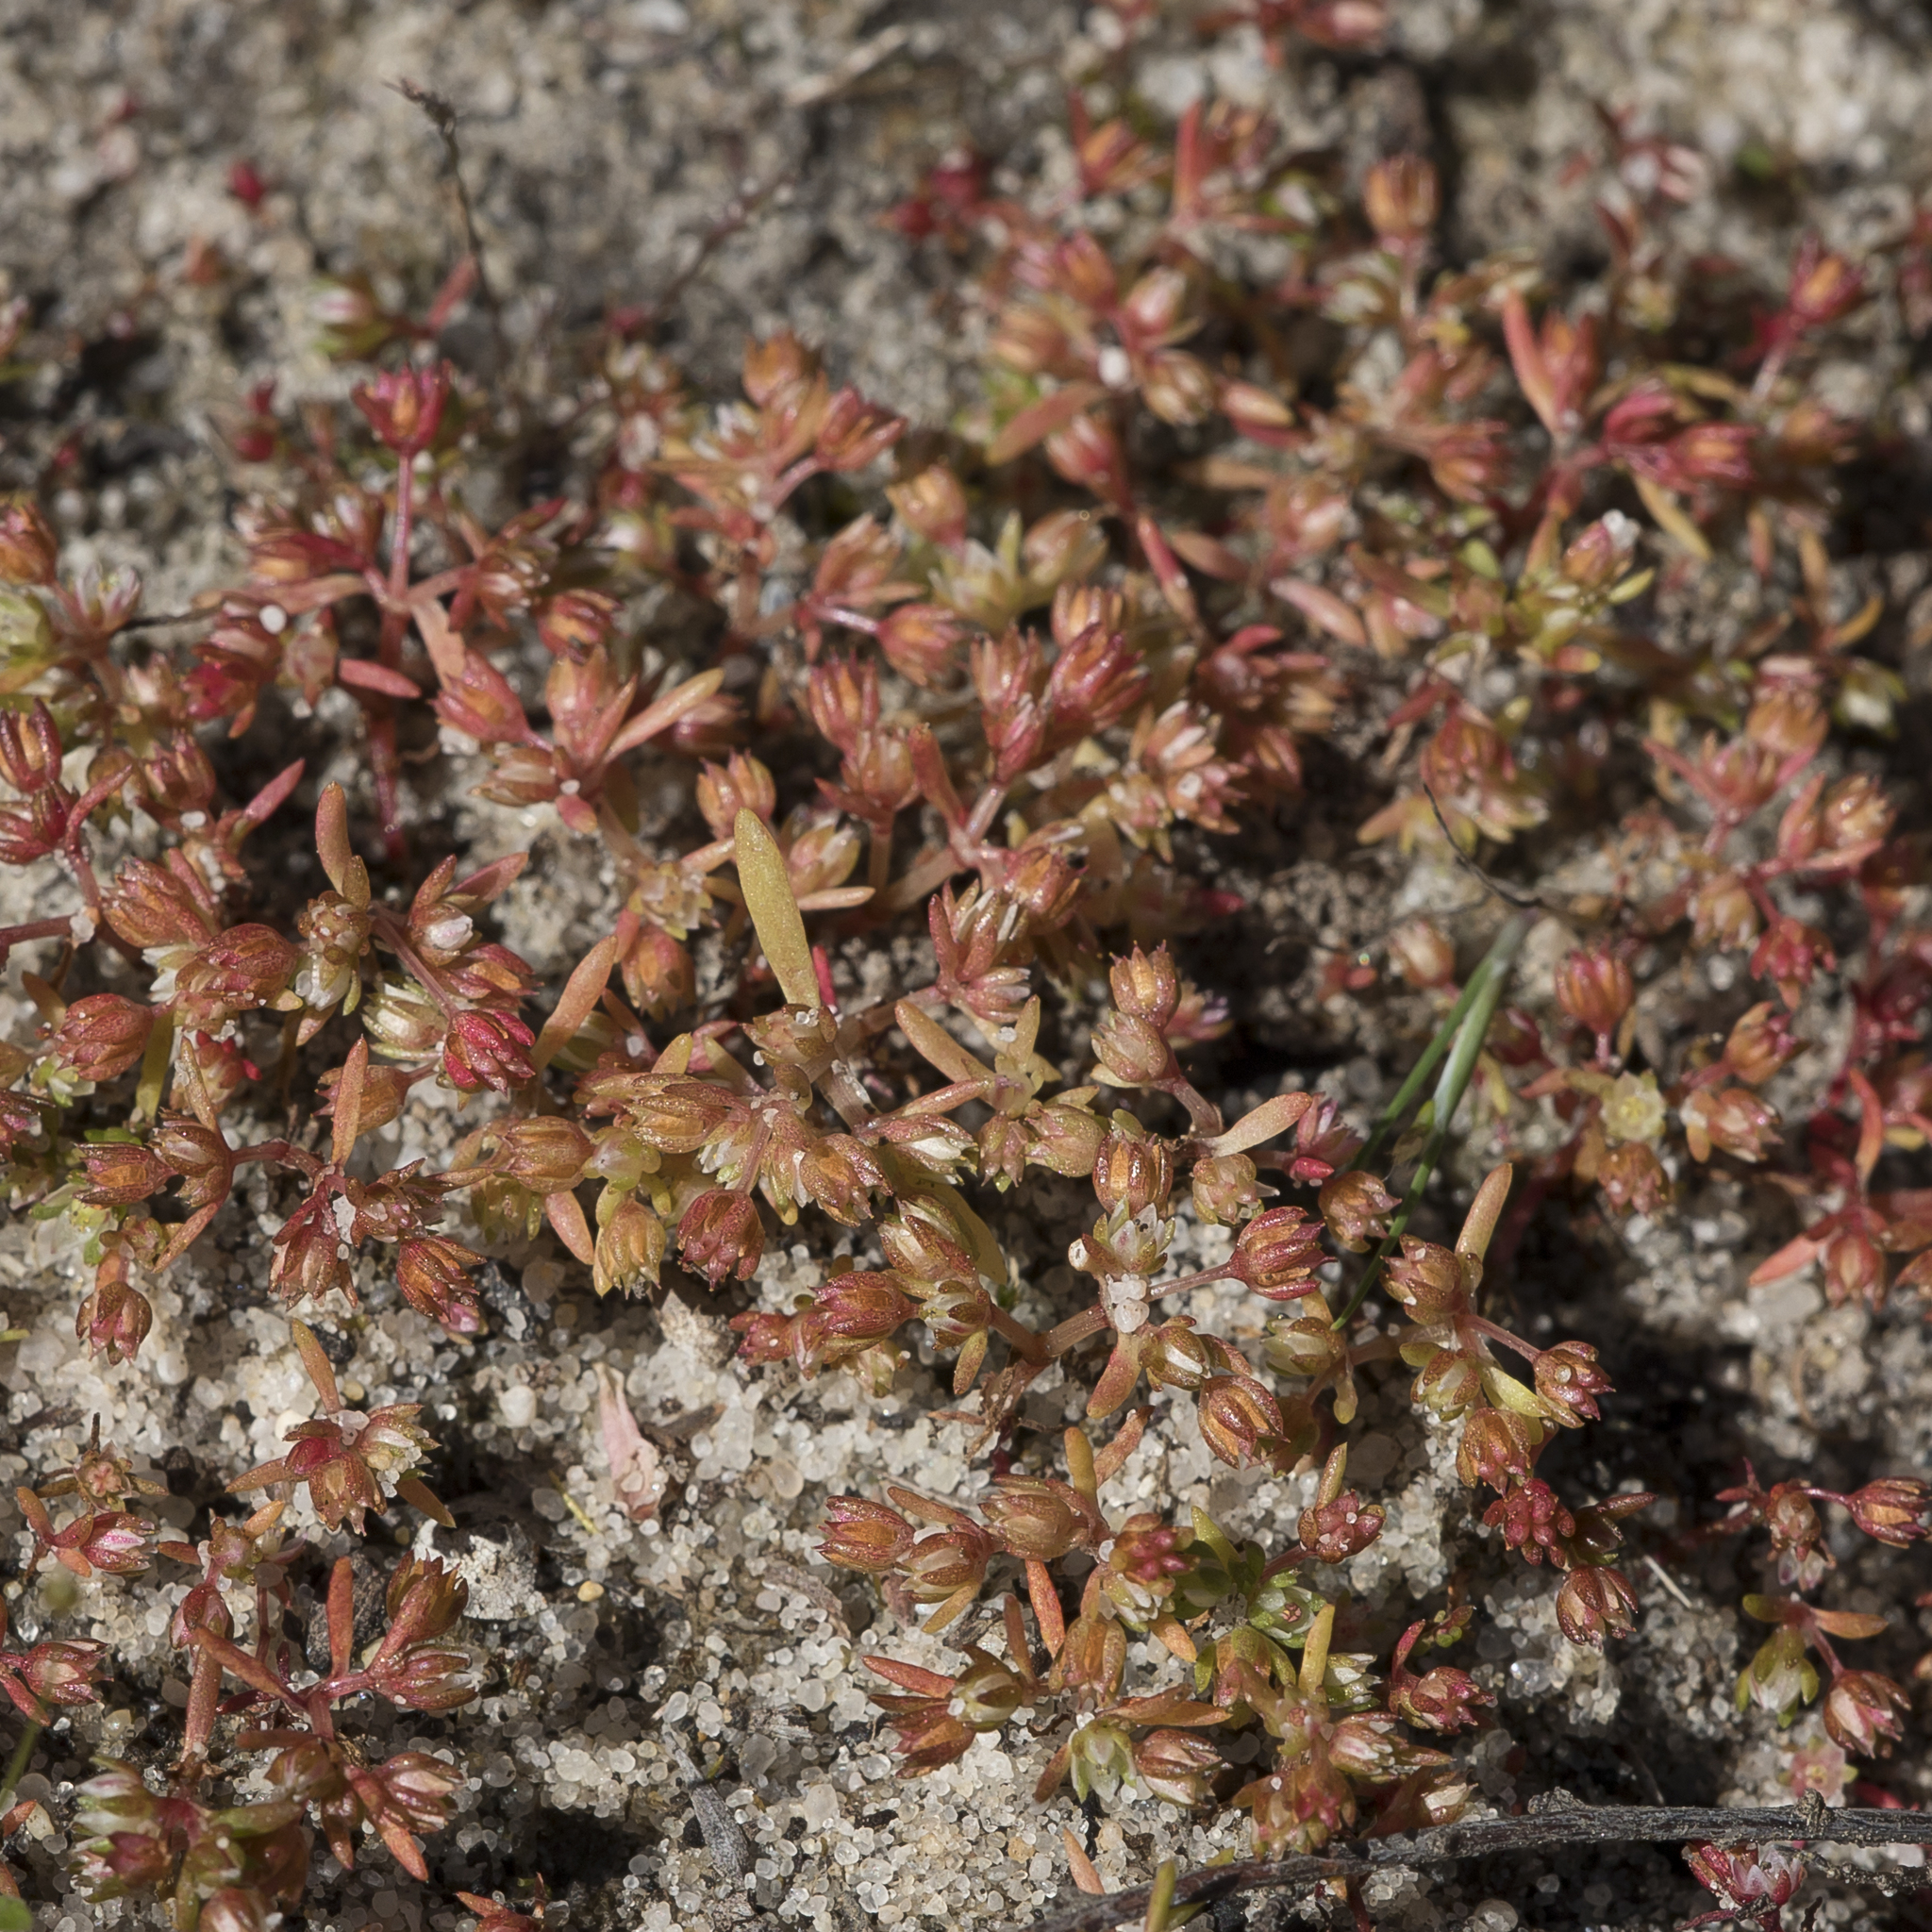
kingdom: Plantae
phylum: Tracheophyta
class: Magnoliopsida
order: Saxifragales
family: Crassulaceae
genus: Crassula
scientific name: Crassula decumbens
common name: Scilly pigmyweed
